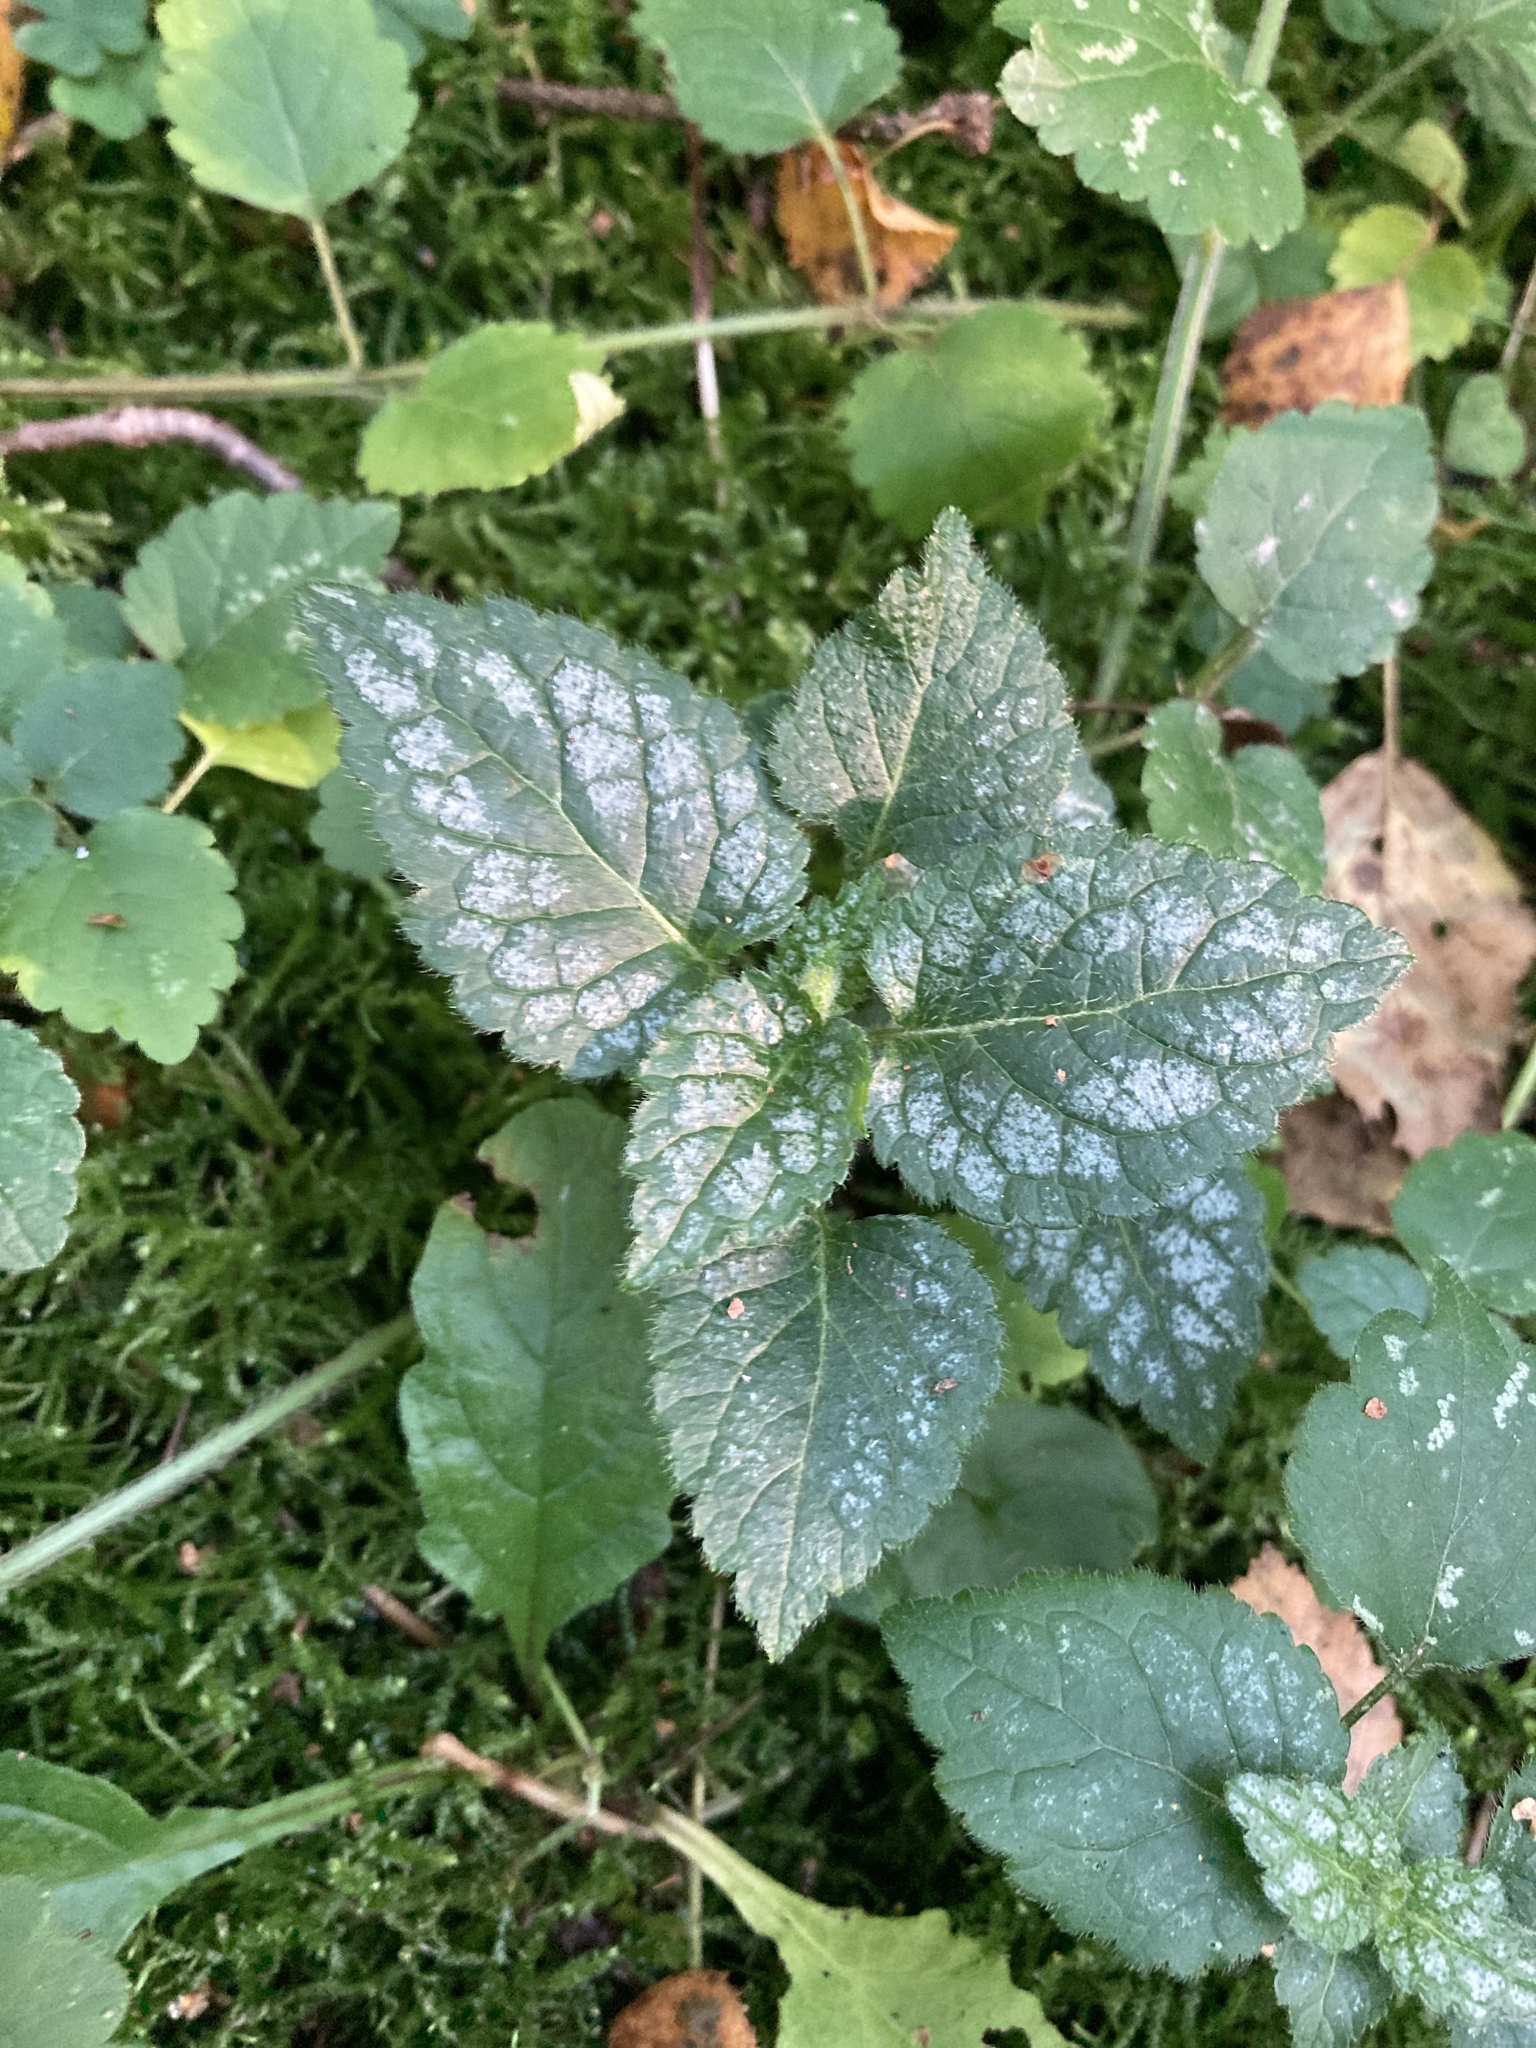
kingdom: Plantae
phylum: Tracheophyta
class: Magnoliopsida
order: Lamiales
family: Lamiaceae
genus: Lamium
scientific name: Lamium galeobdolon
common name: Yellow archangel
